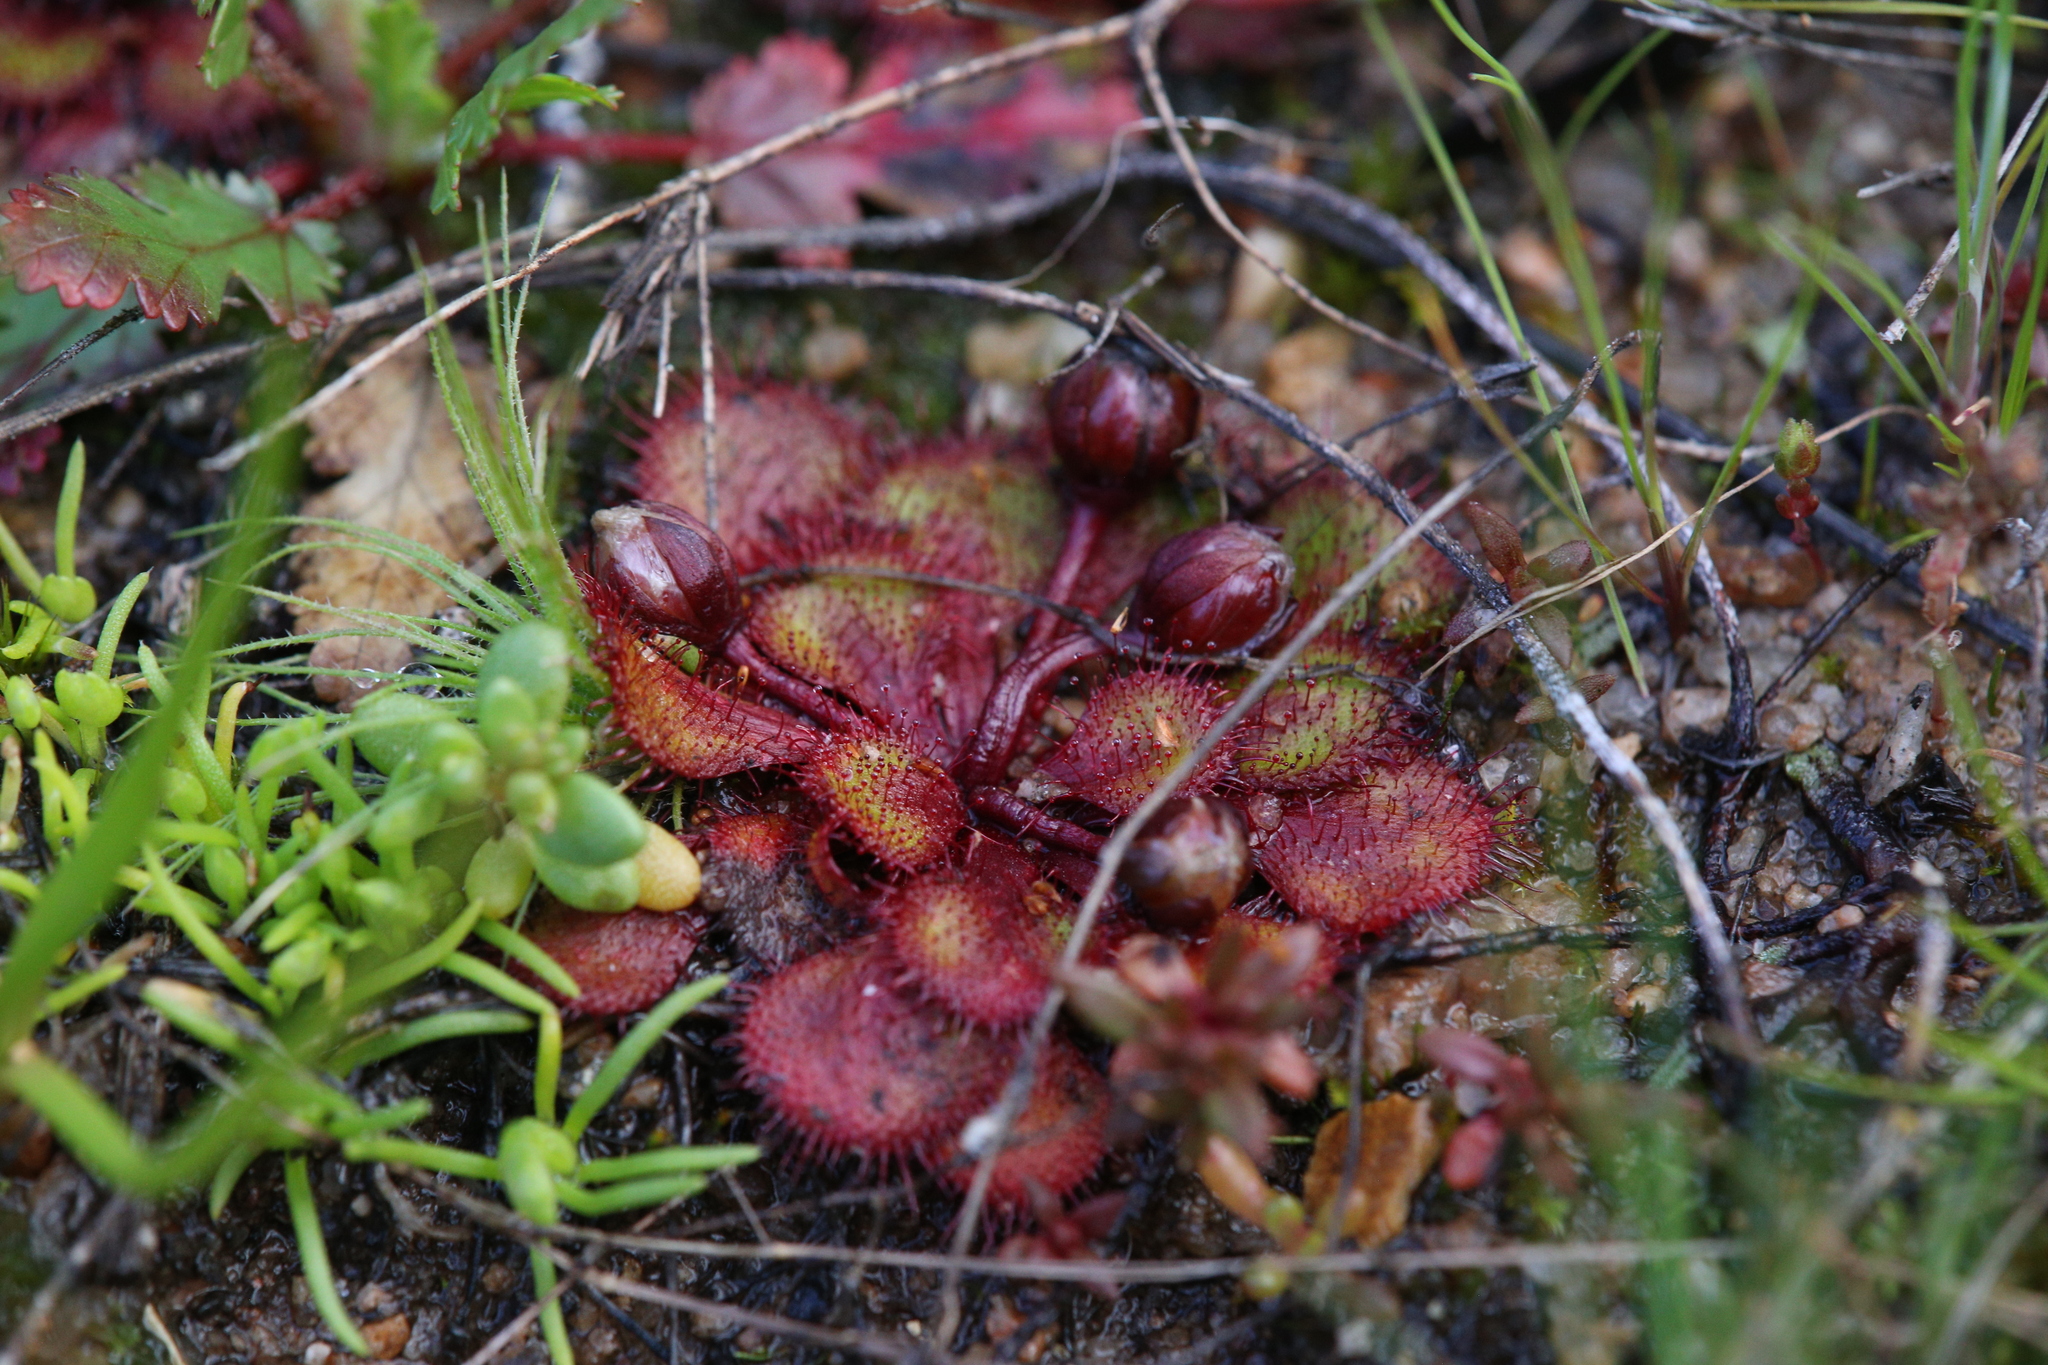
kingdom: Plantae
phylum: Tracheophyta
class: Magnoliopsida
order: Caryophyllales
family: Droseraceae
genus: Drosera
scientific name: Drosera lowriei
